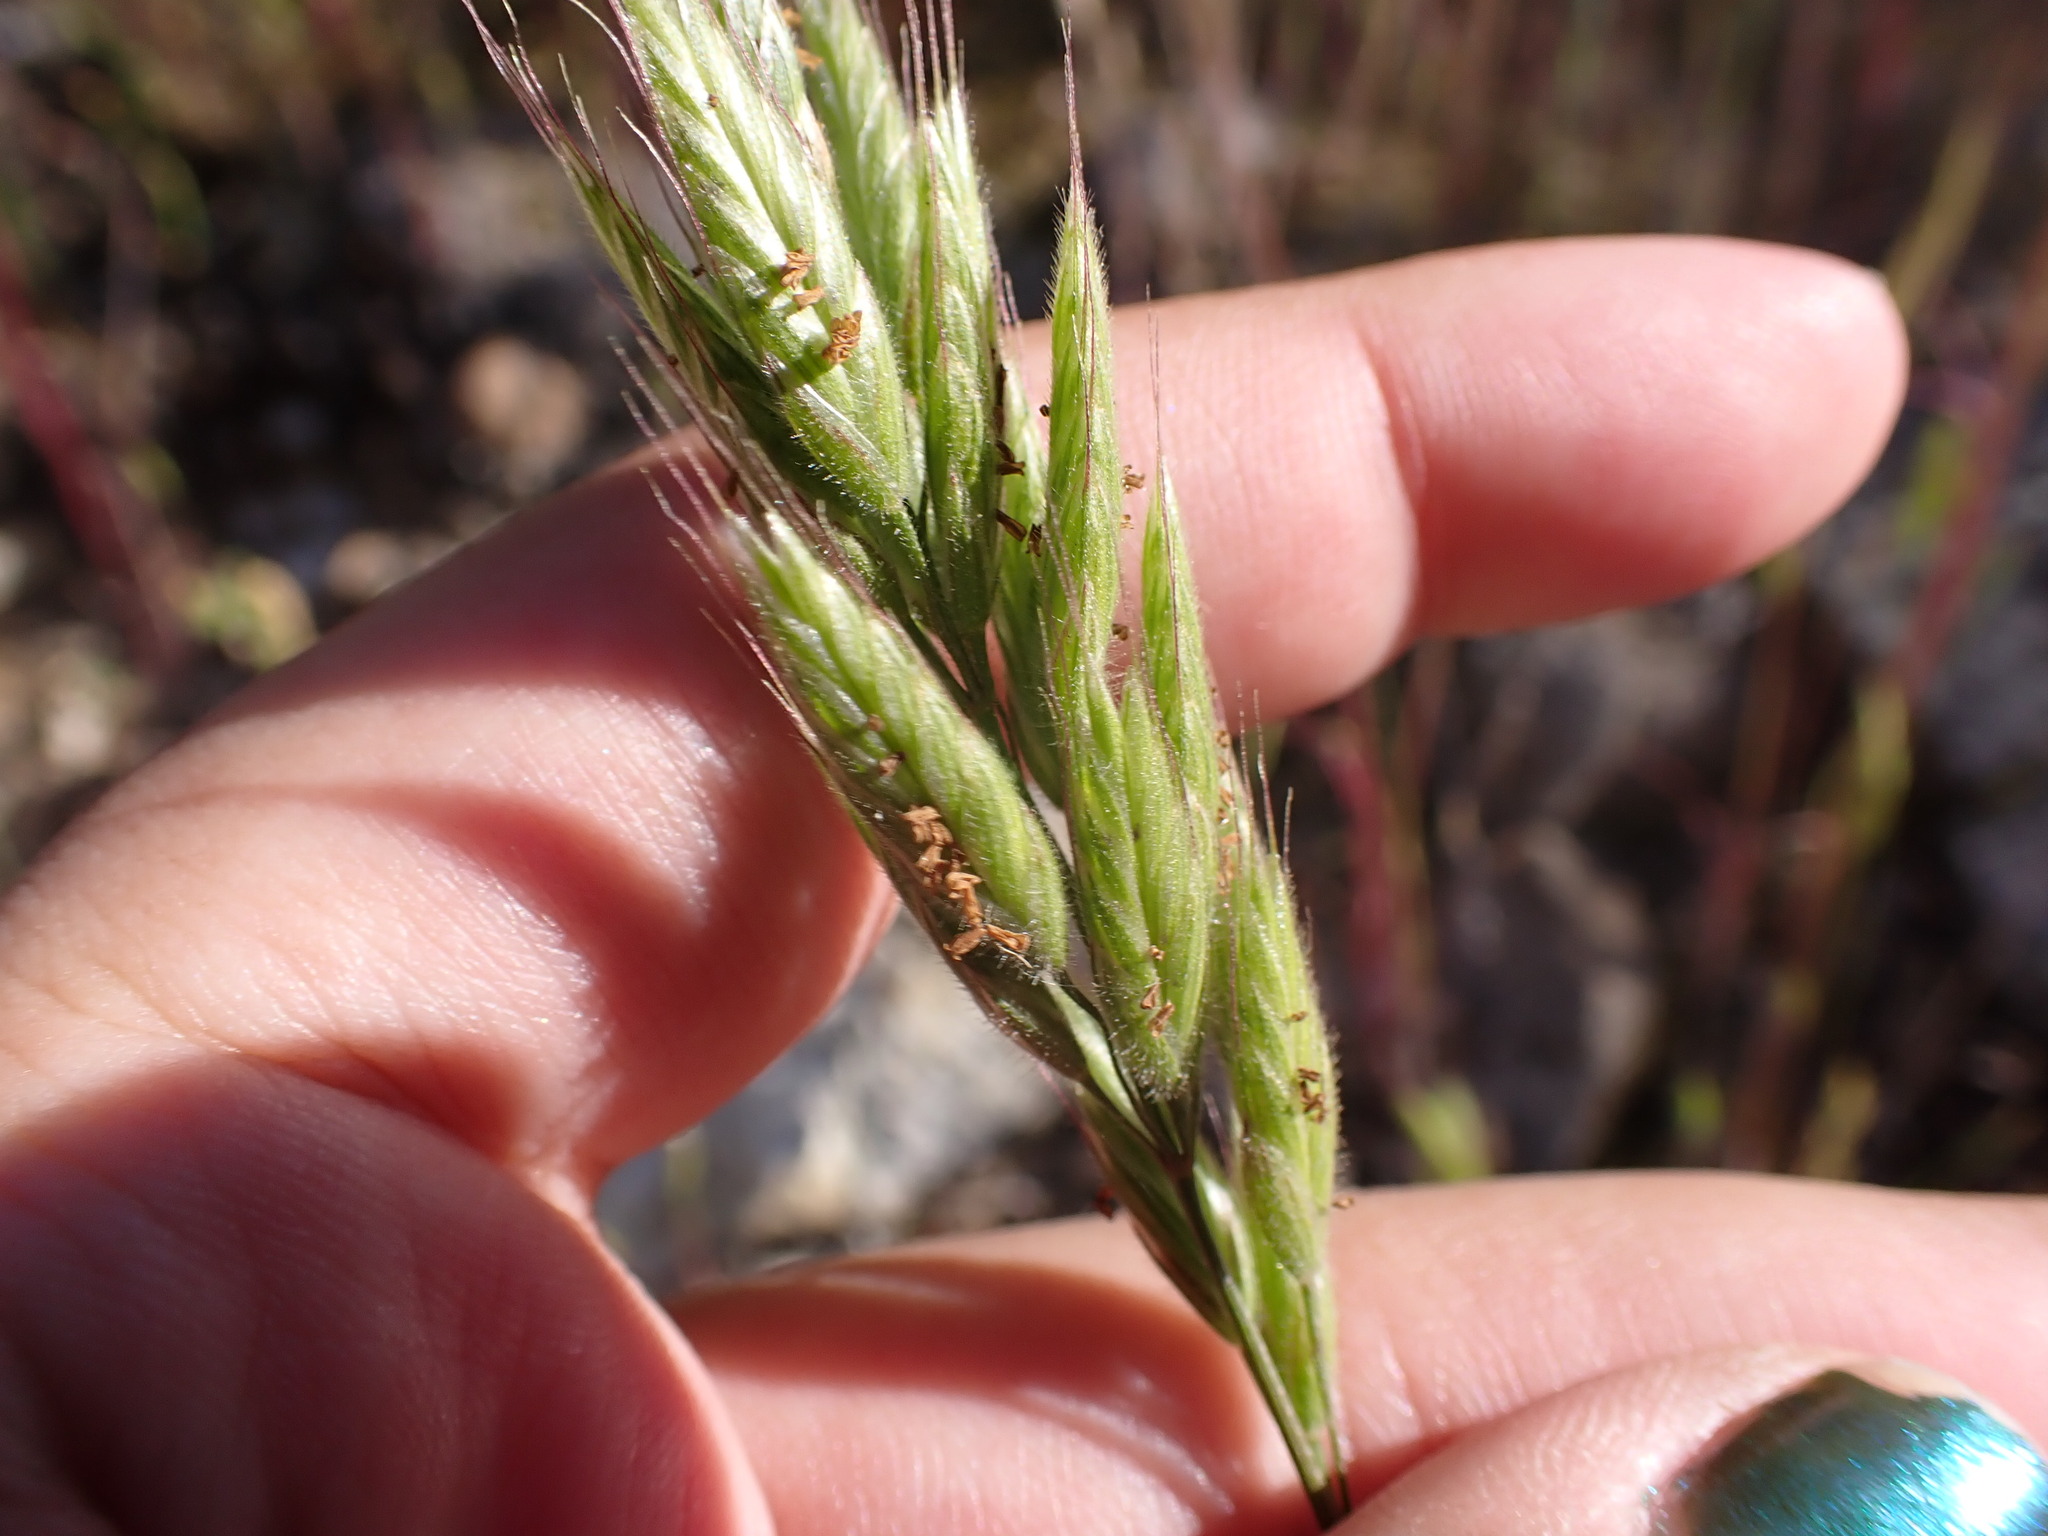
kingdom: Plantae
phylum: Tracheophyta
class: Liliopsida
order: Poales
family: Poaceae
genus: Bromus
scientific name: Bromus hordeaceus
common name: Soft brome
